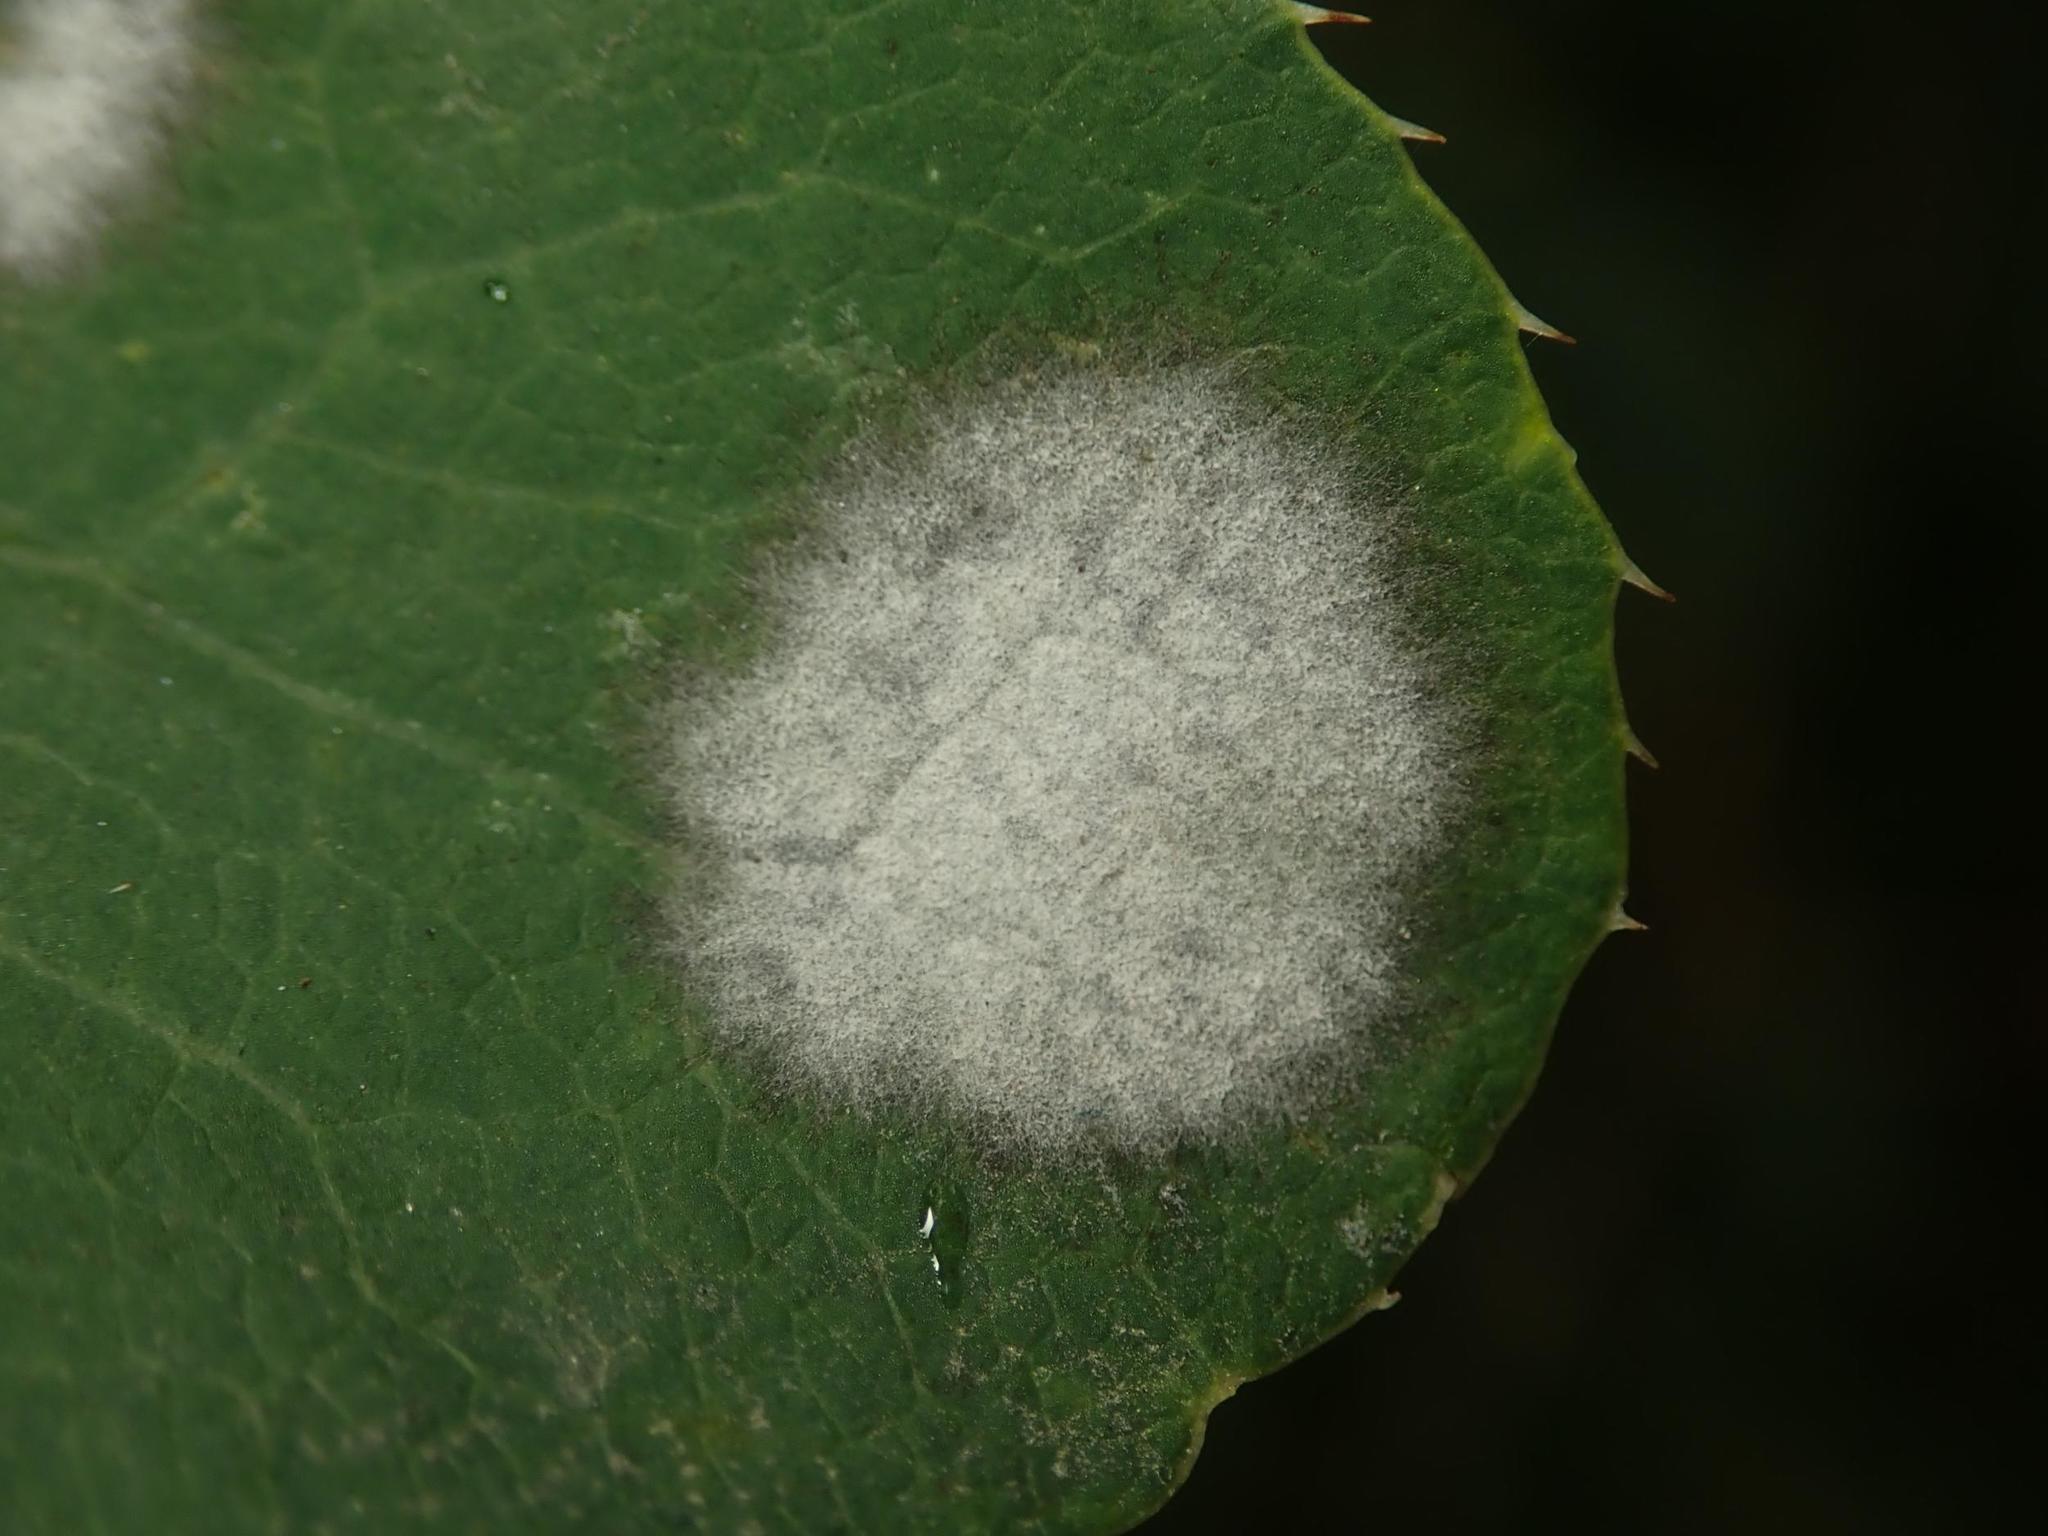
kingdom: Fungi
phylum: Ascomycota
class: Leotiomycetes
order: Helotiales
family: Erysiphaceae
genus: Erysiphe
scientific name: Erysiphe berberidis
